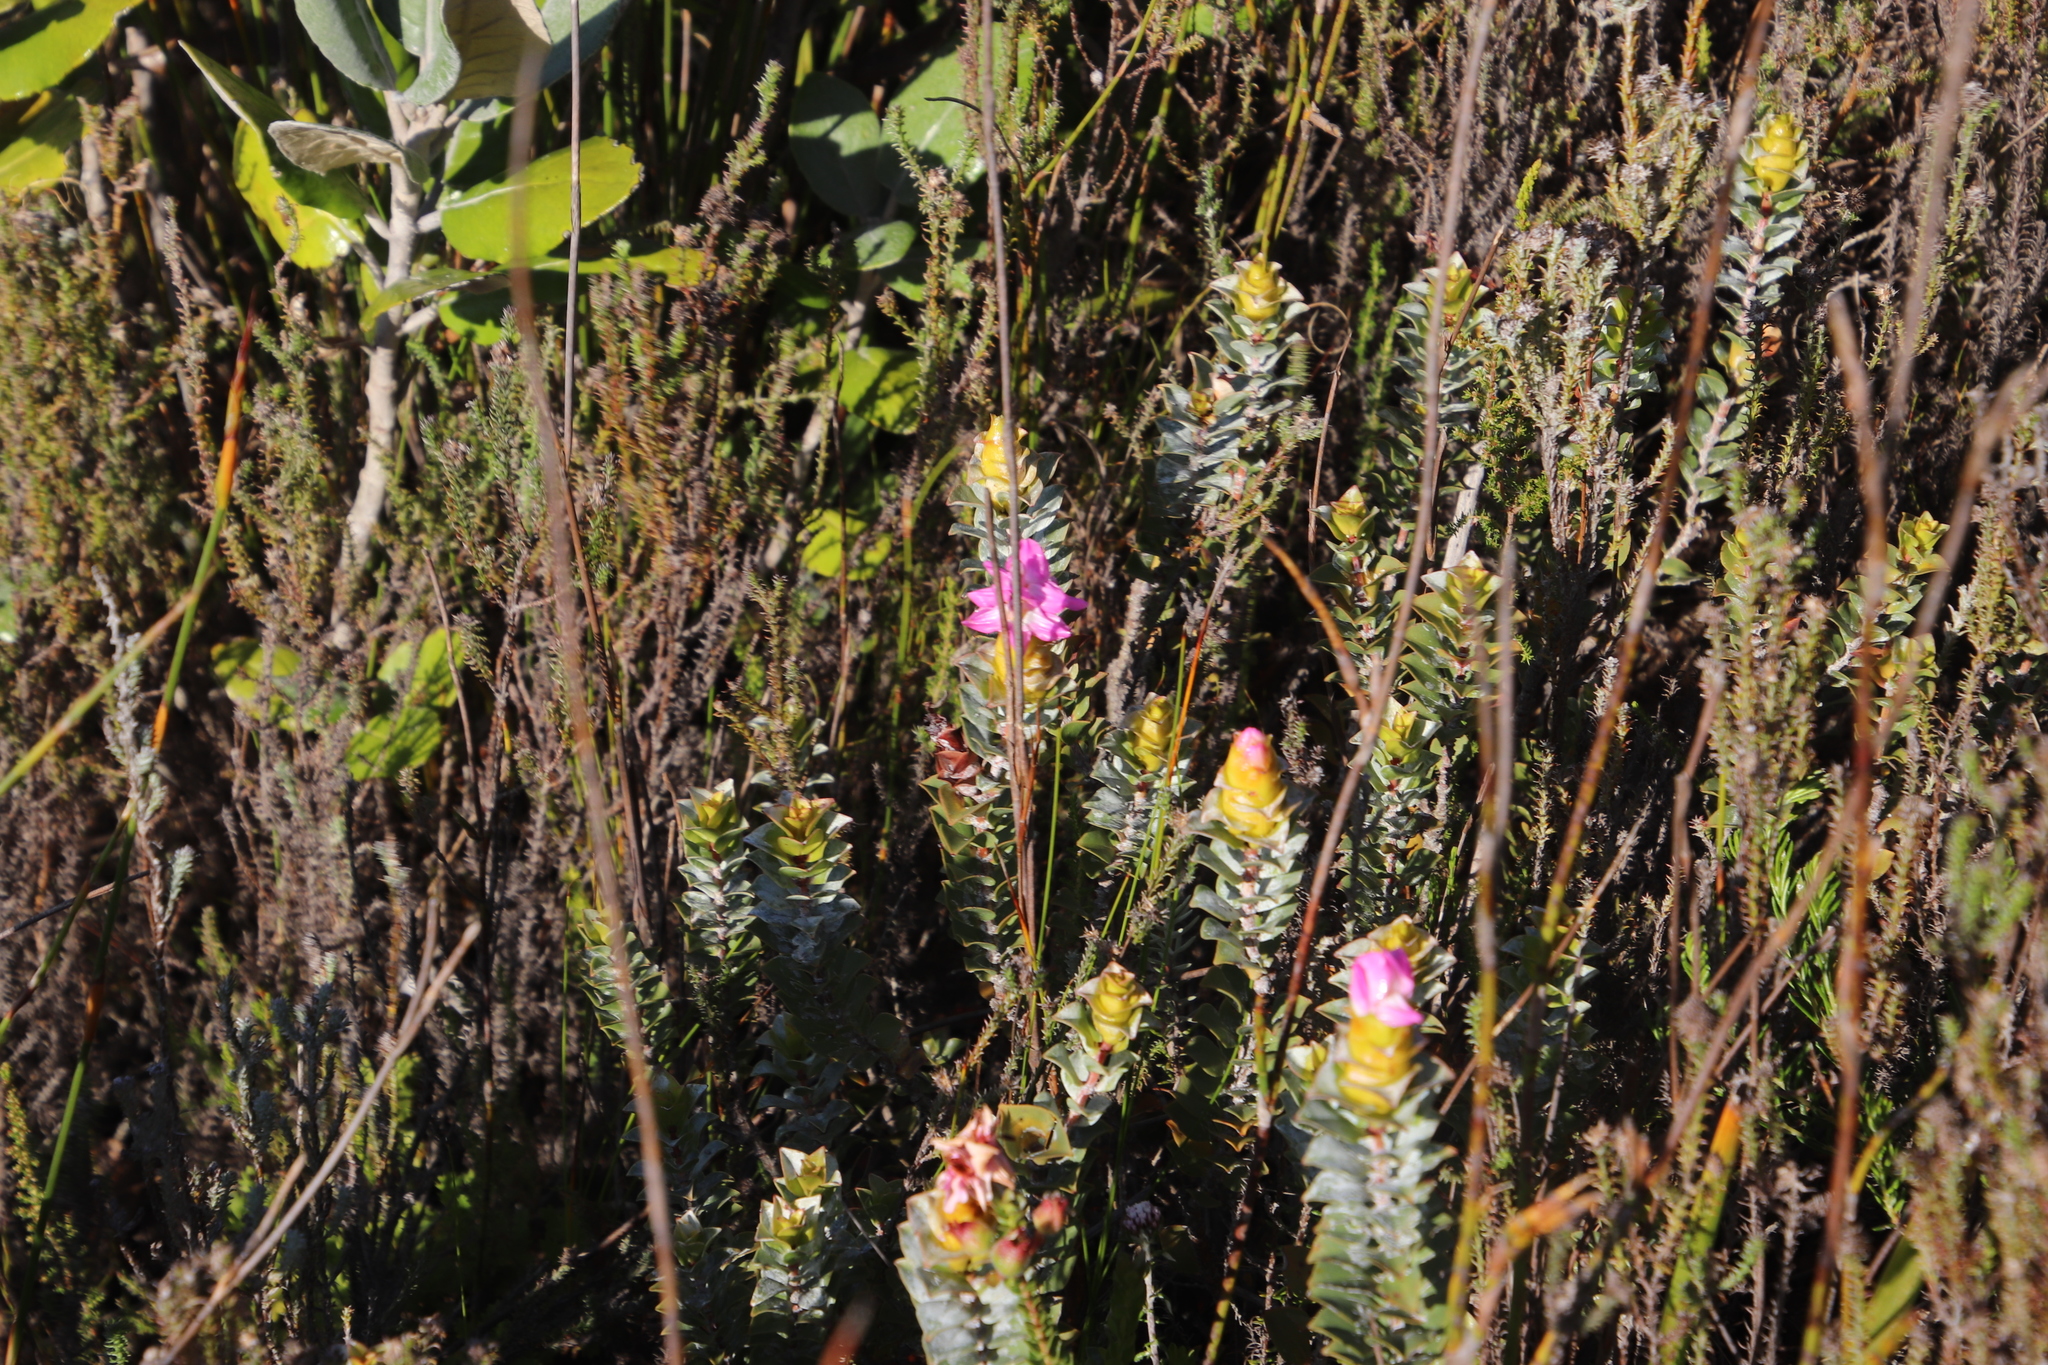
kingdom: Plantae
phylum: Tracheophyta
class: Magnoliopsida
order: Myrtales
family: Penaeaceae
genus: Saltera
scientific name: Saltera sarcocolla
